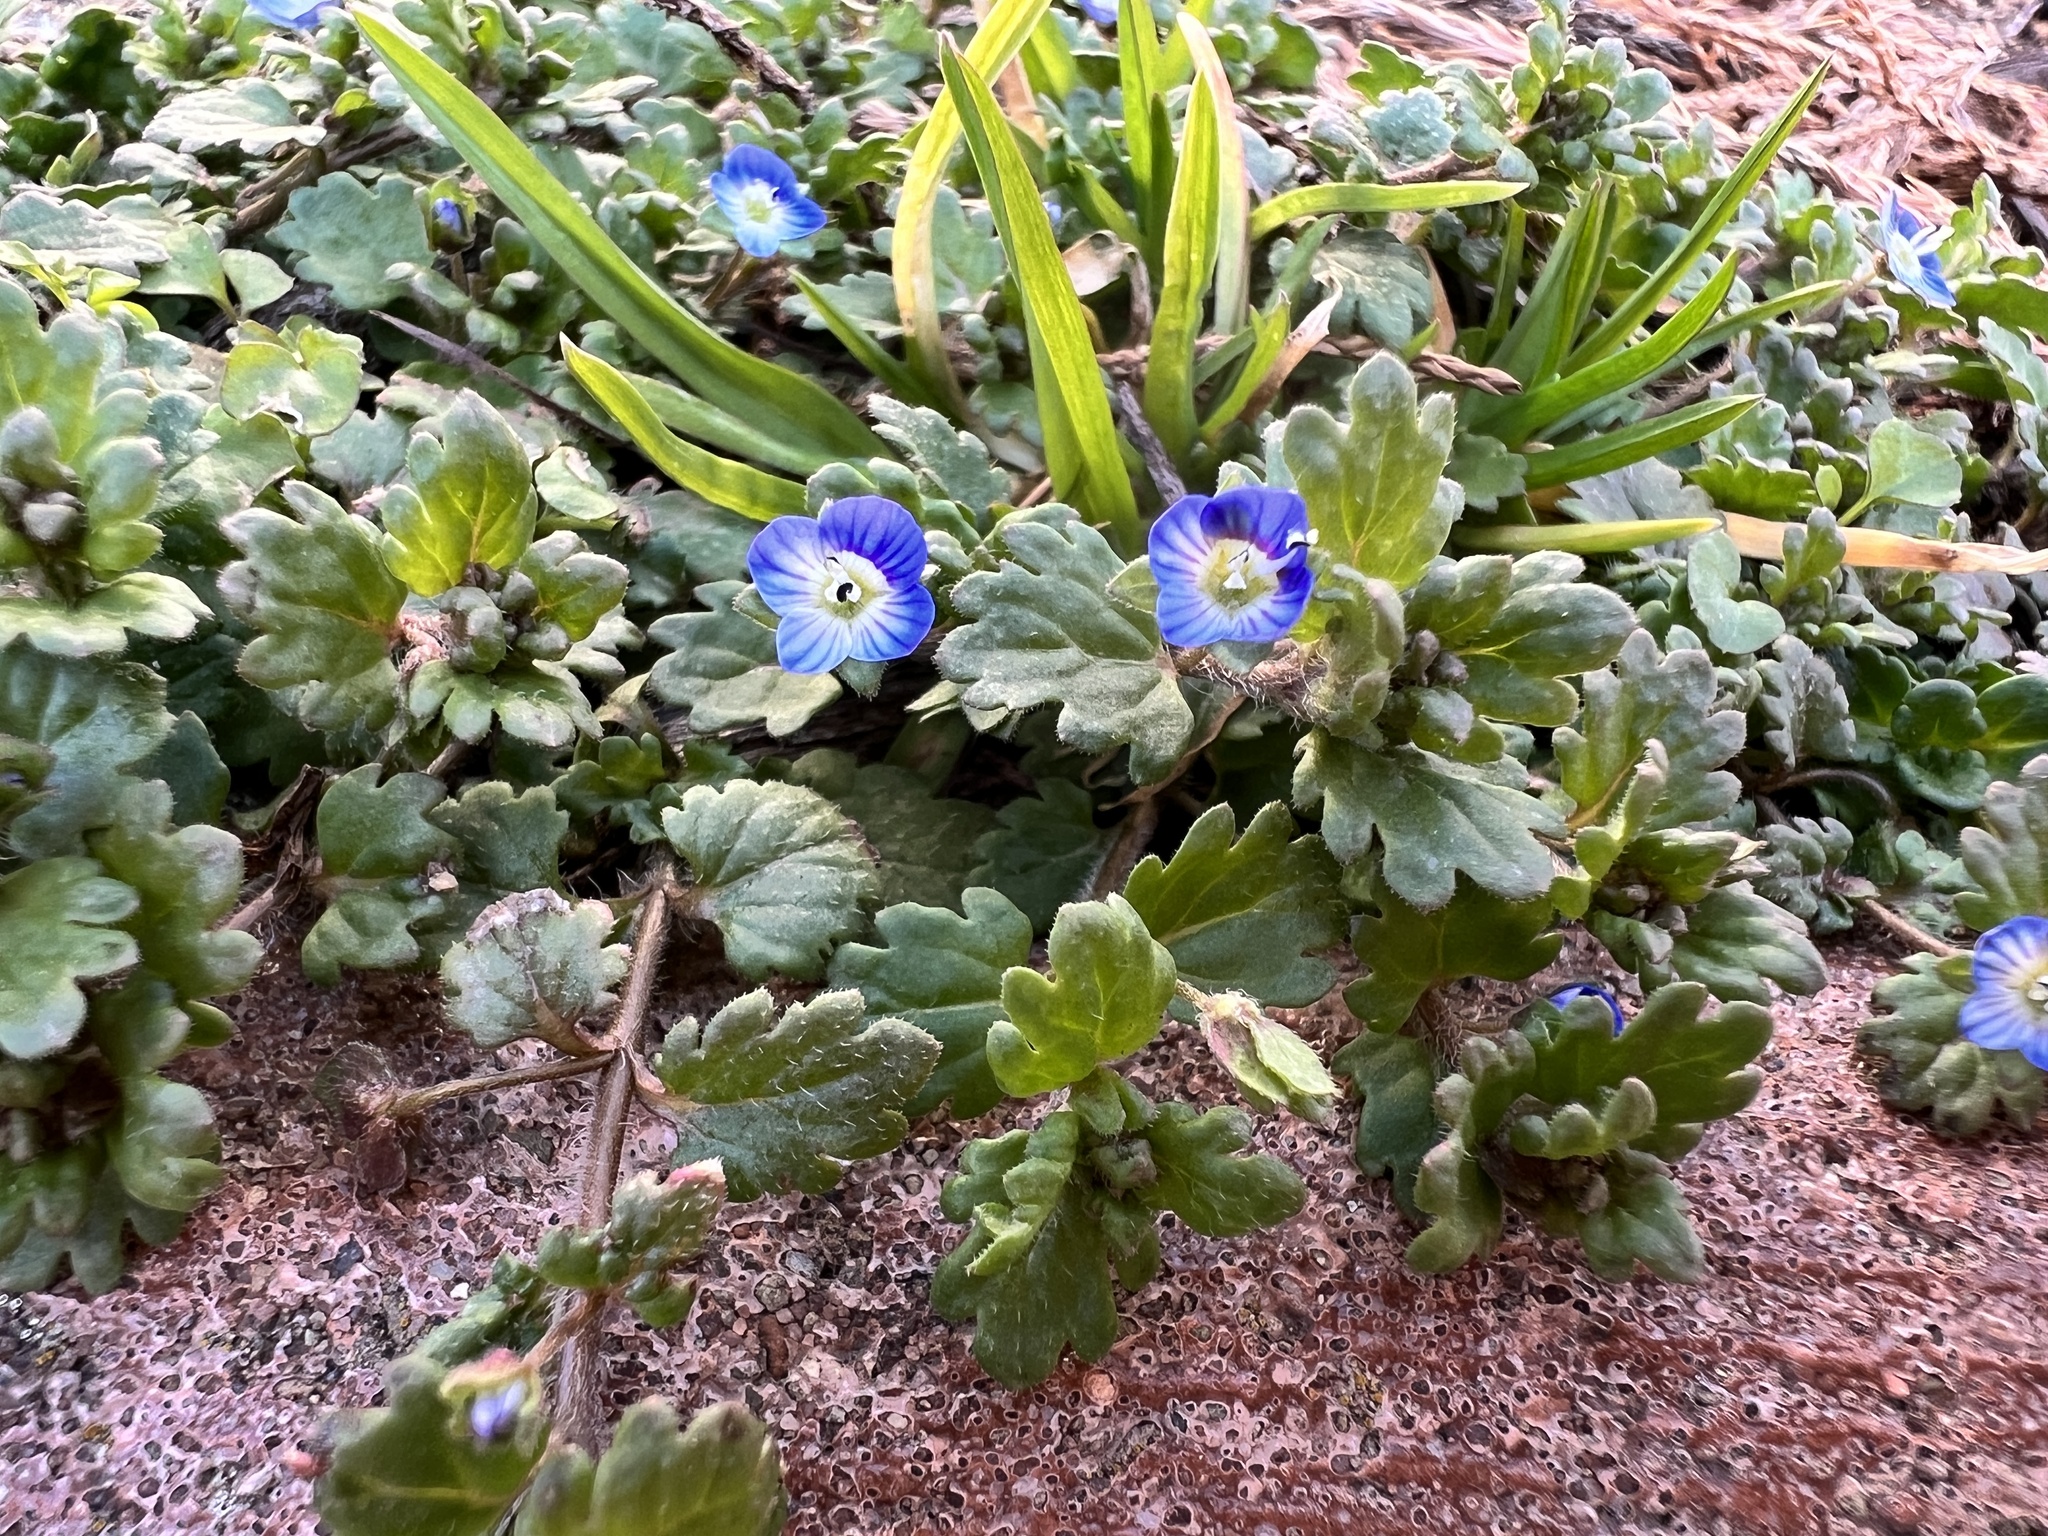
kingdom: Plantae
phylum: Tracheophyta
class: Magnoliopsida
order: Lamiales
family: Plantaginaceae
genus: Veronica
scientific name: Veronica persica
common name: Common field-speedwell
